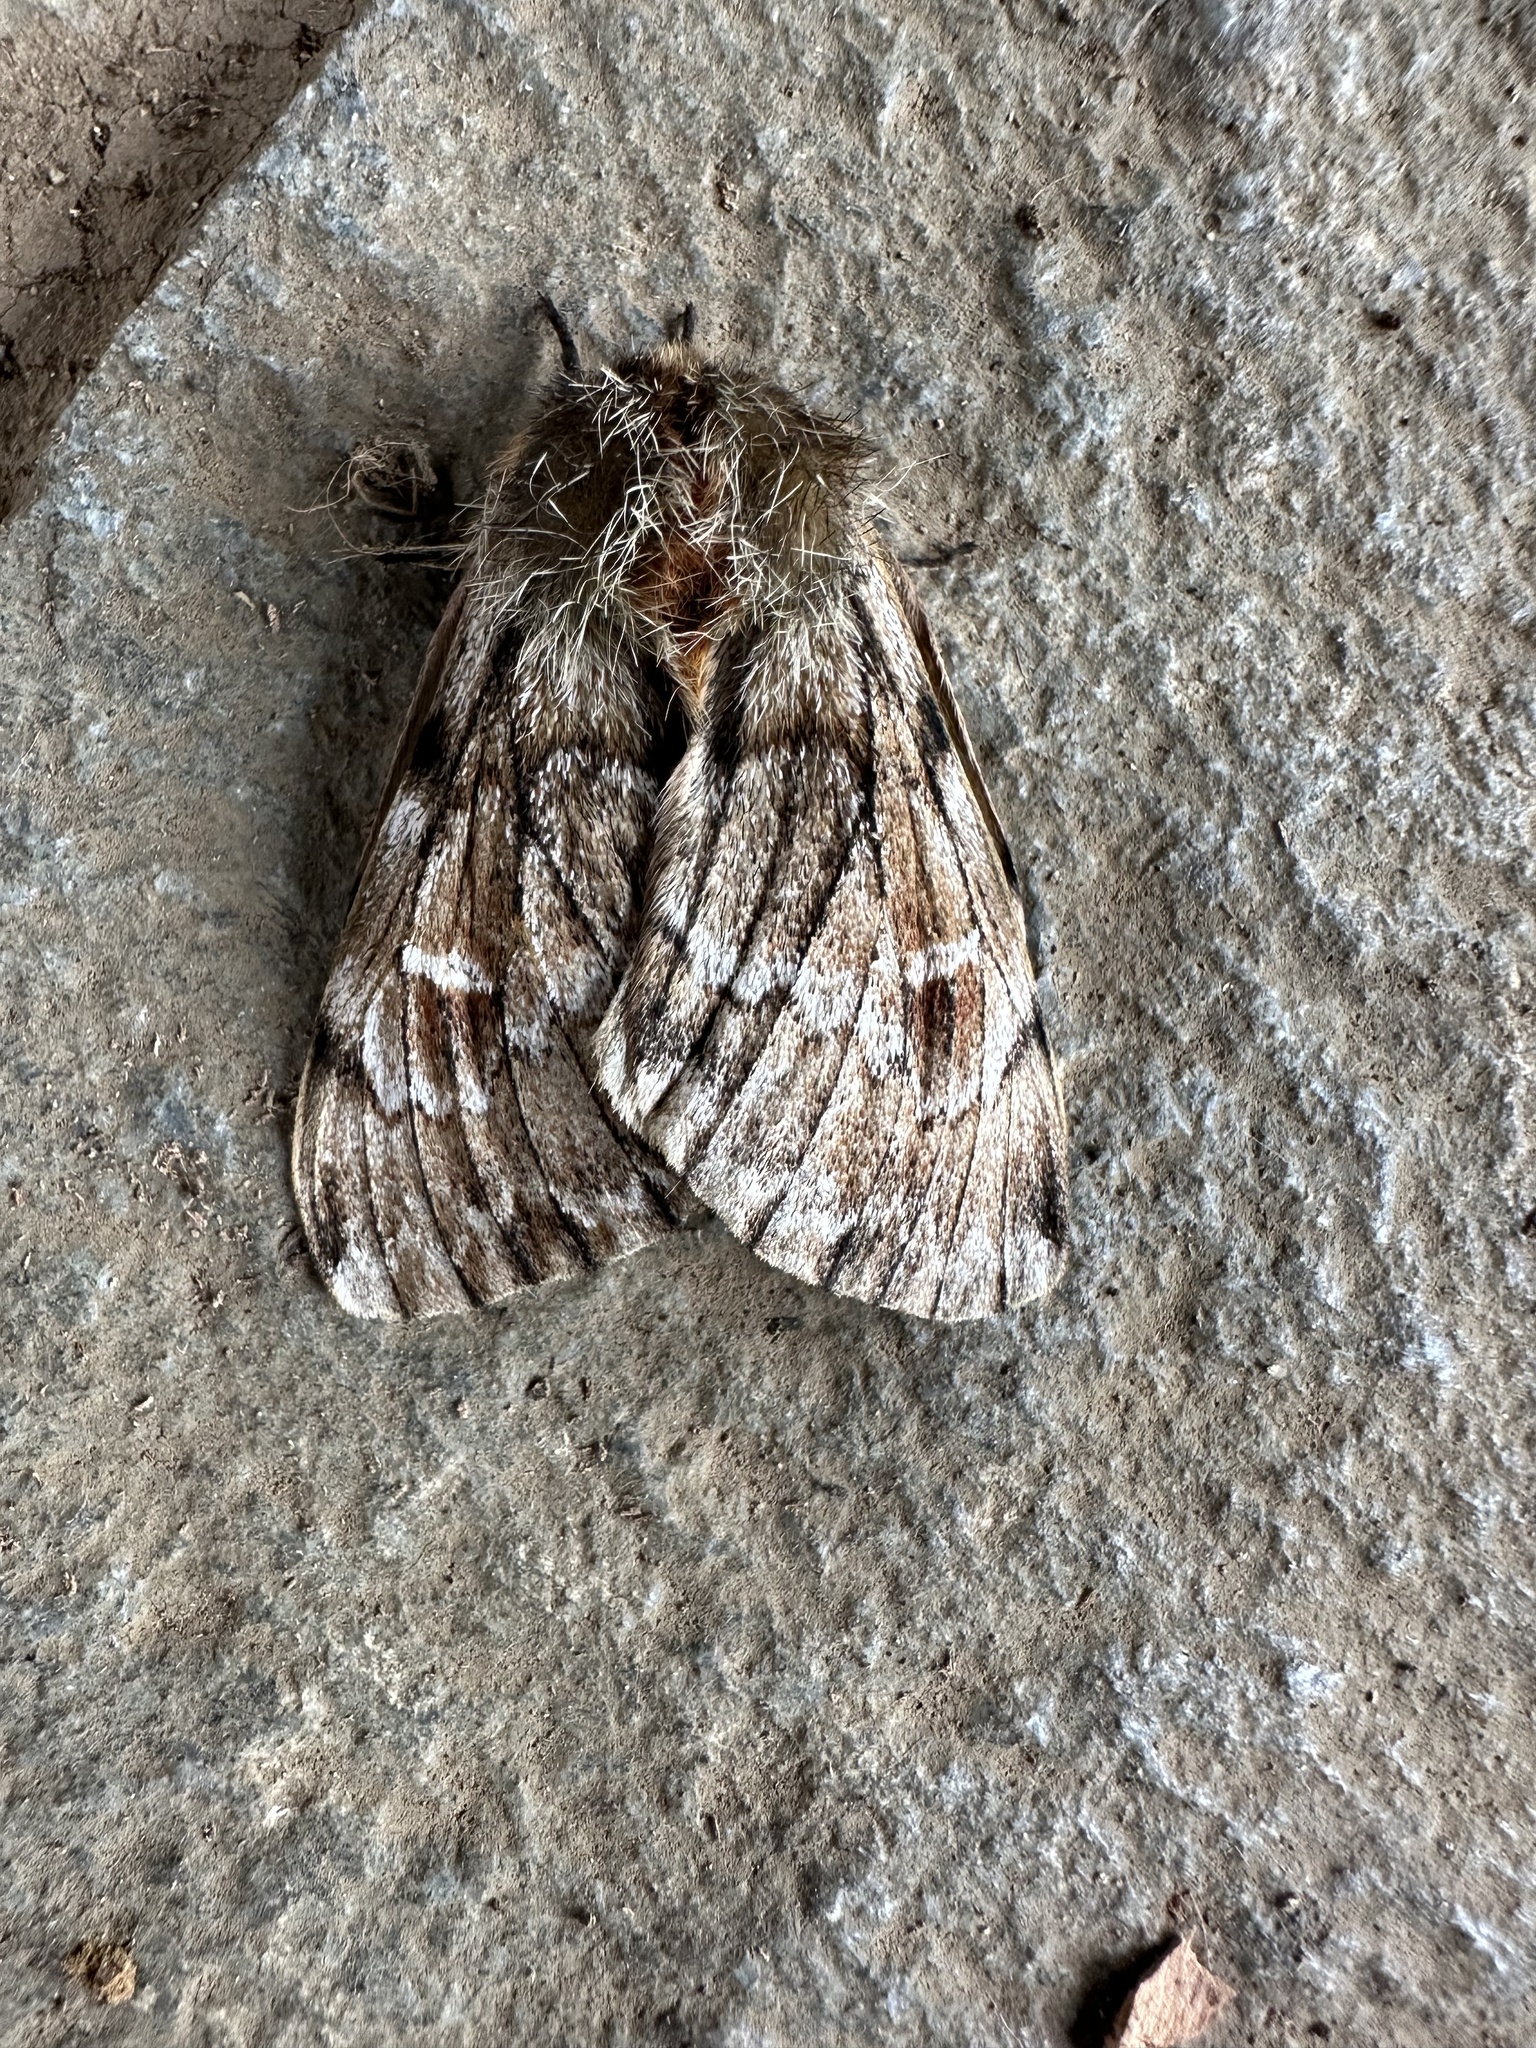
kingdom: Animalia
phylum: Arthropoda
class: Insecta
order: Lepidoptera
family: Saturniidae
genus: Ormiscodes
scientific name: Ormiscodes nigrosignata
